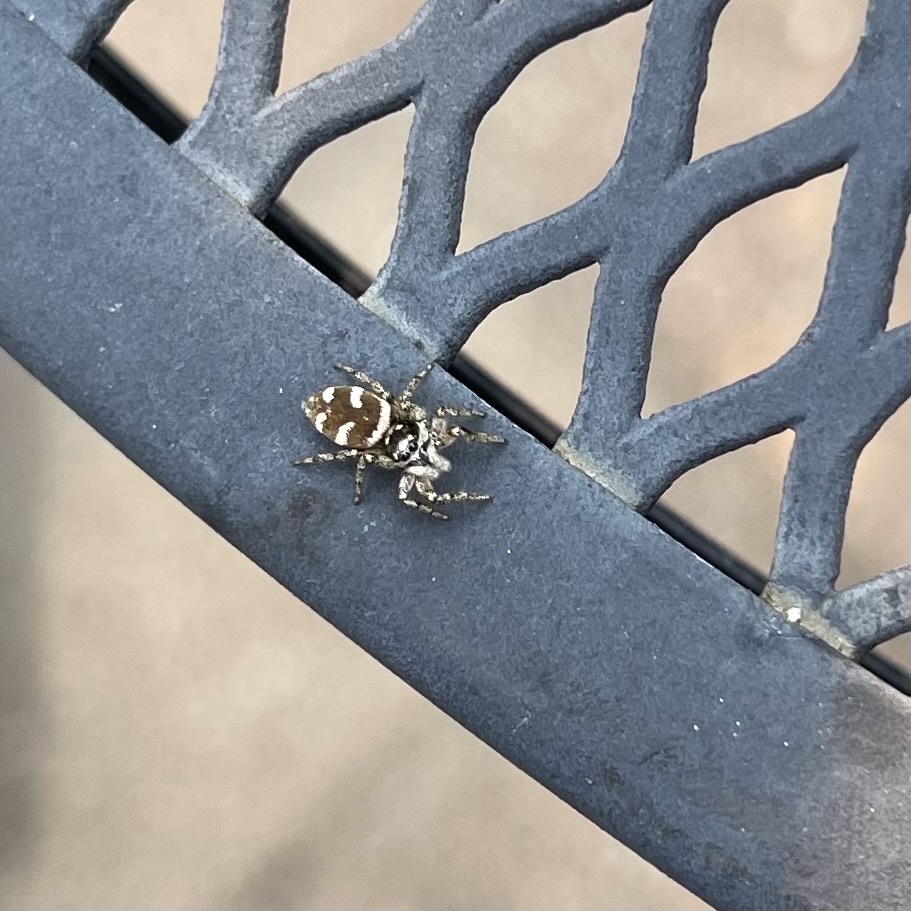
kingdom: Animalia
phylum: Arthropoda
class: Arachnida
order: Araneae
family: Salticidae
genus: Salticus
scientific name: Salticus scenicus
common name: Zebra jumper
